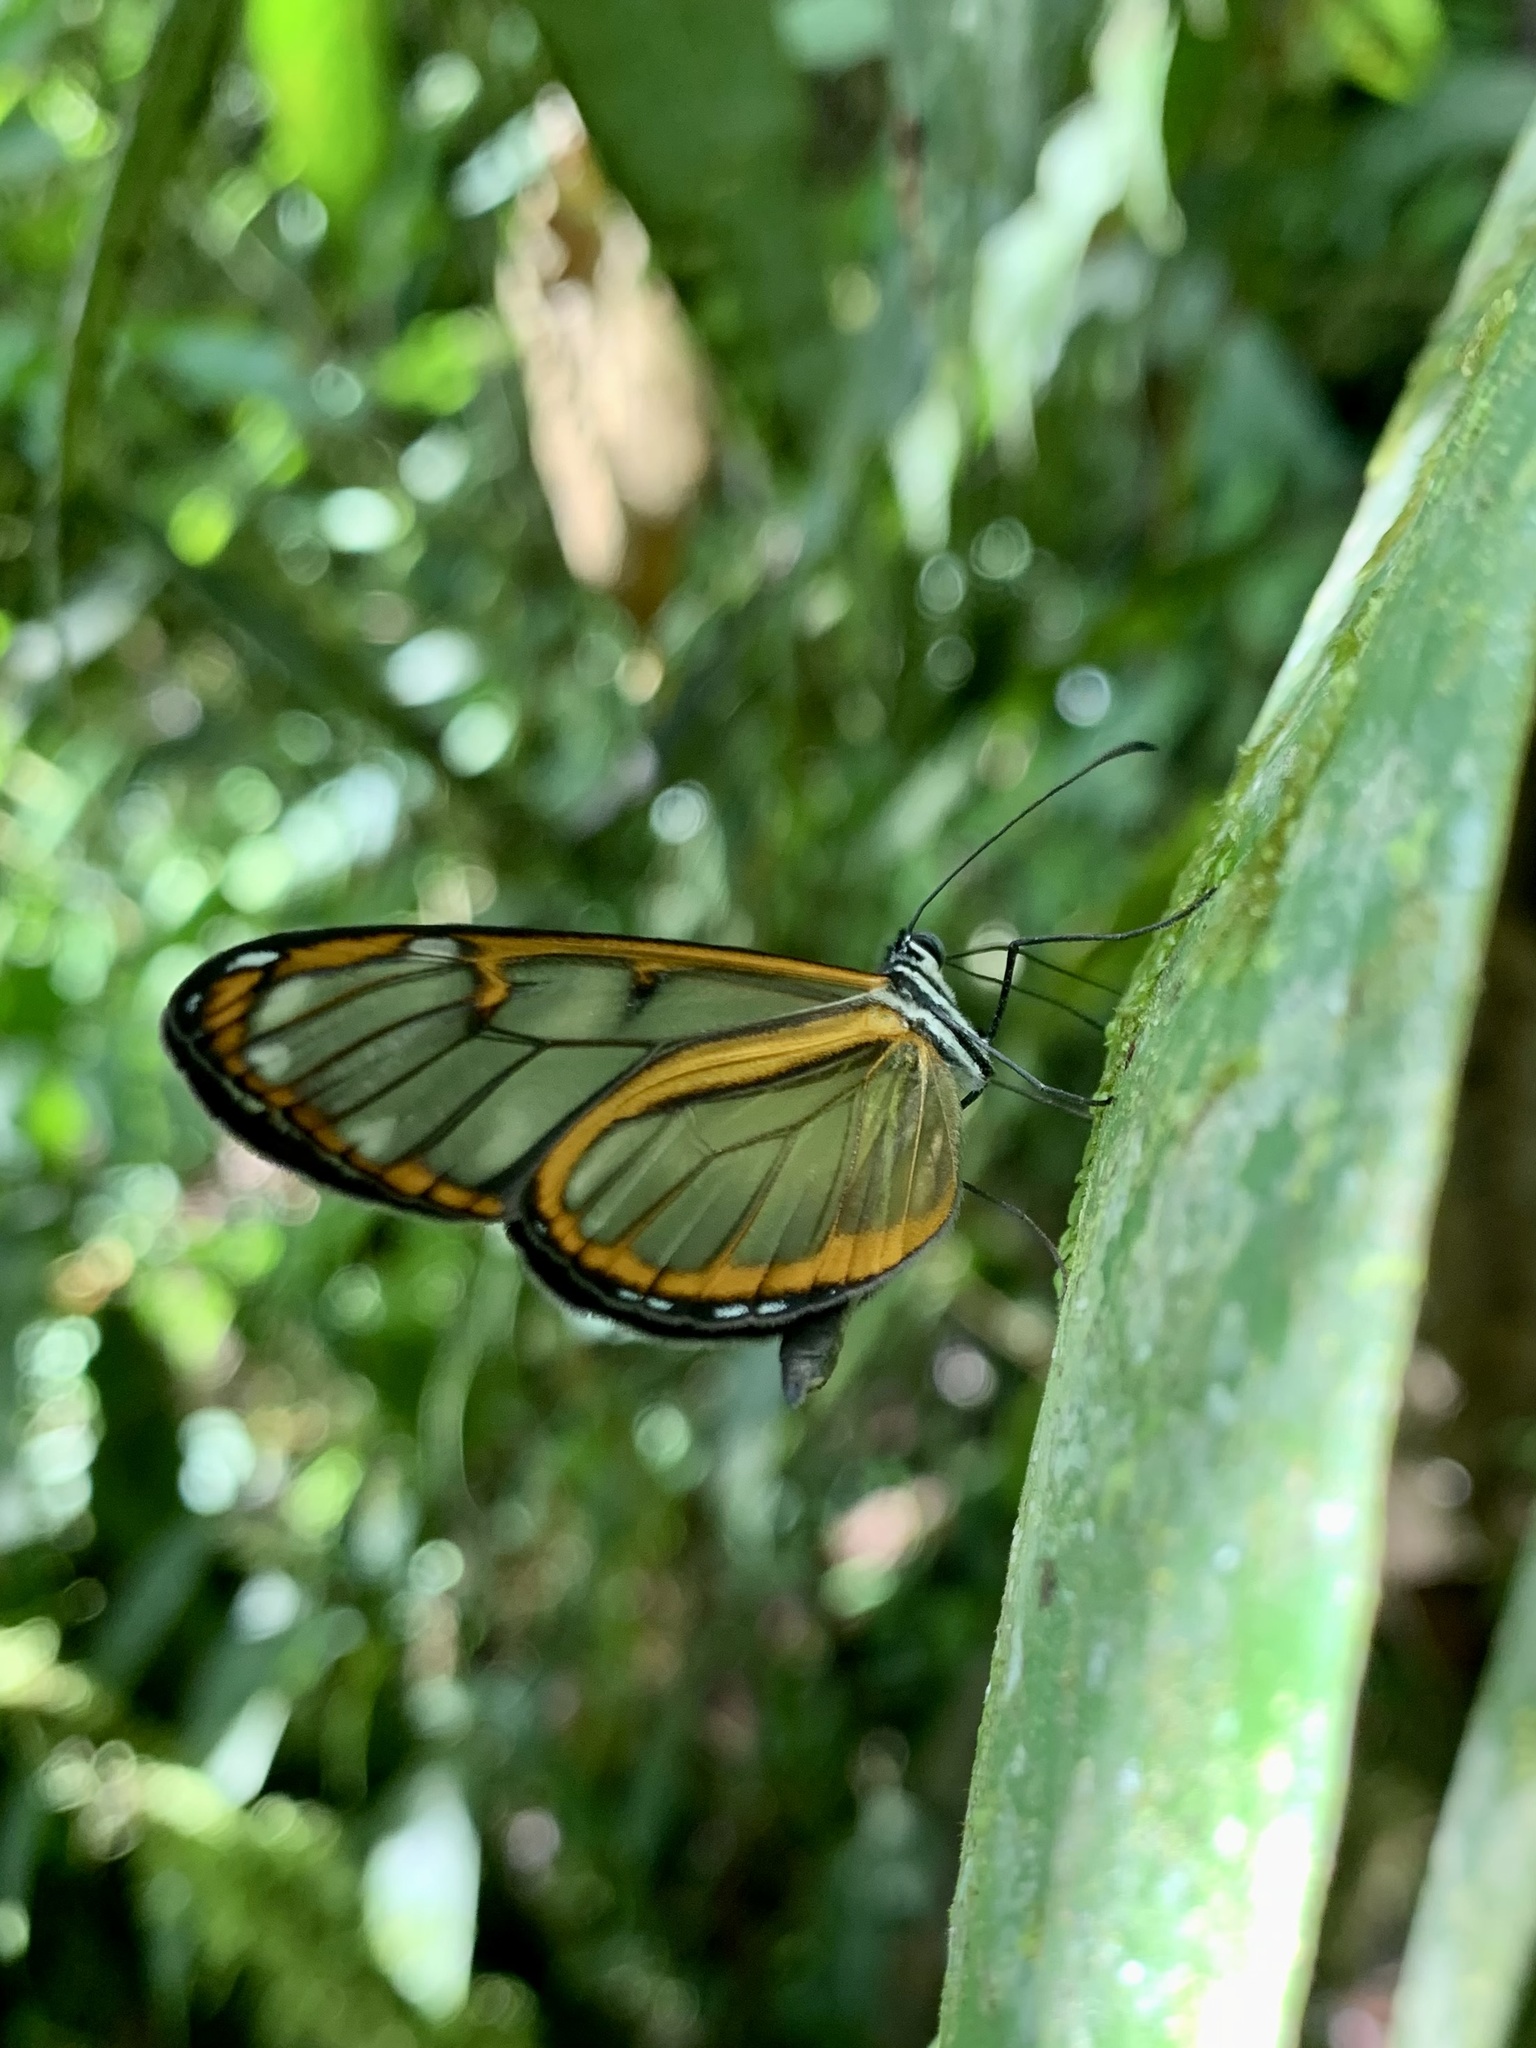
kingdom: Animalia
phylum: Arthropoda
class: Insecta
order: Lepidoptera
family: Nymphalidae
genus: Oleria
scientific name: Oleria makrena
